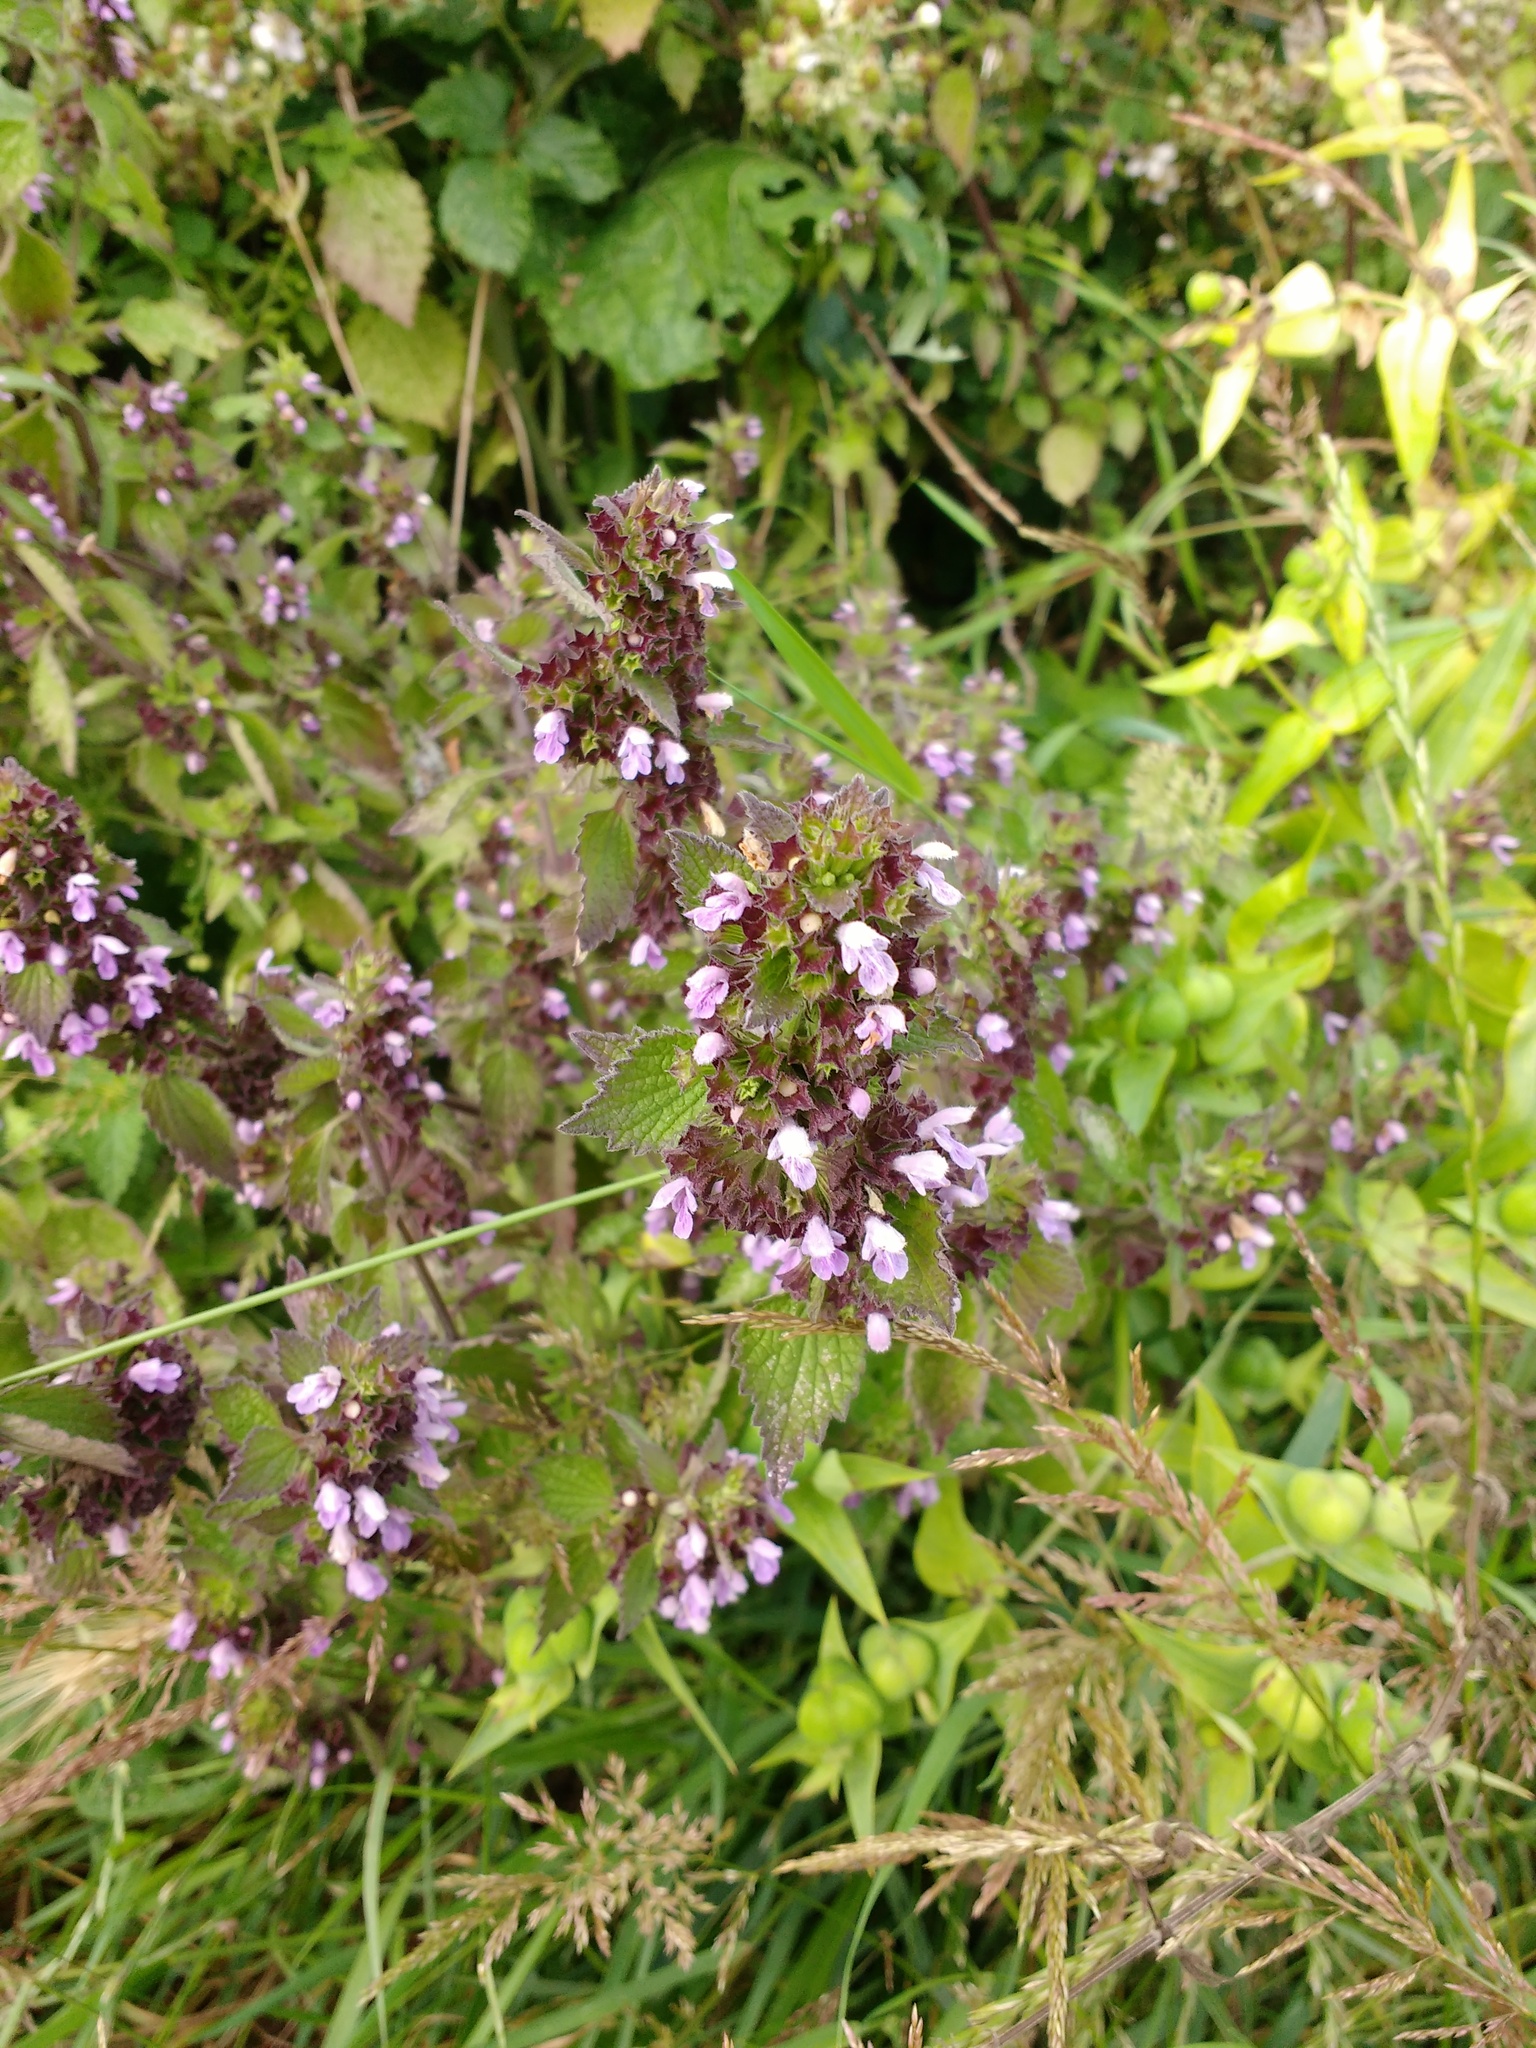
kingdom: Plantae
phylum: Tracheophyta
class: Magnoliopsida
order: Lamiales
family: Lamiaceae
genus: Ballota
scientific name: Ballota nigra
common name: Black horehound
